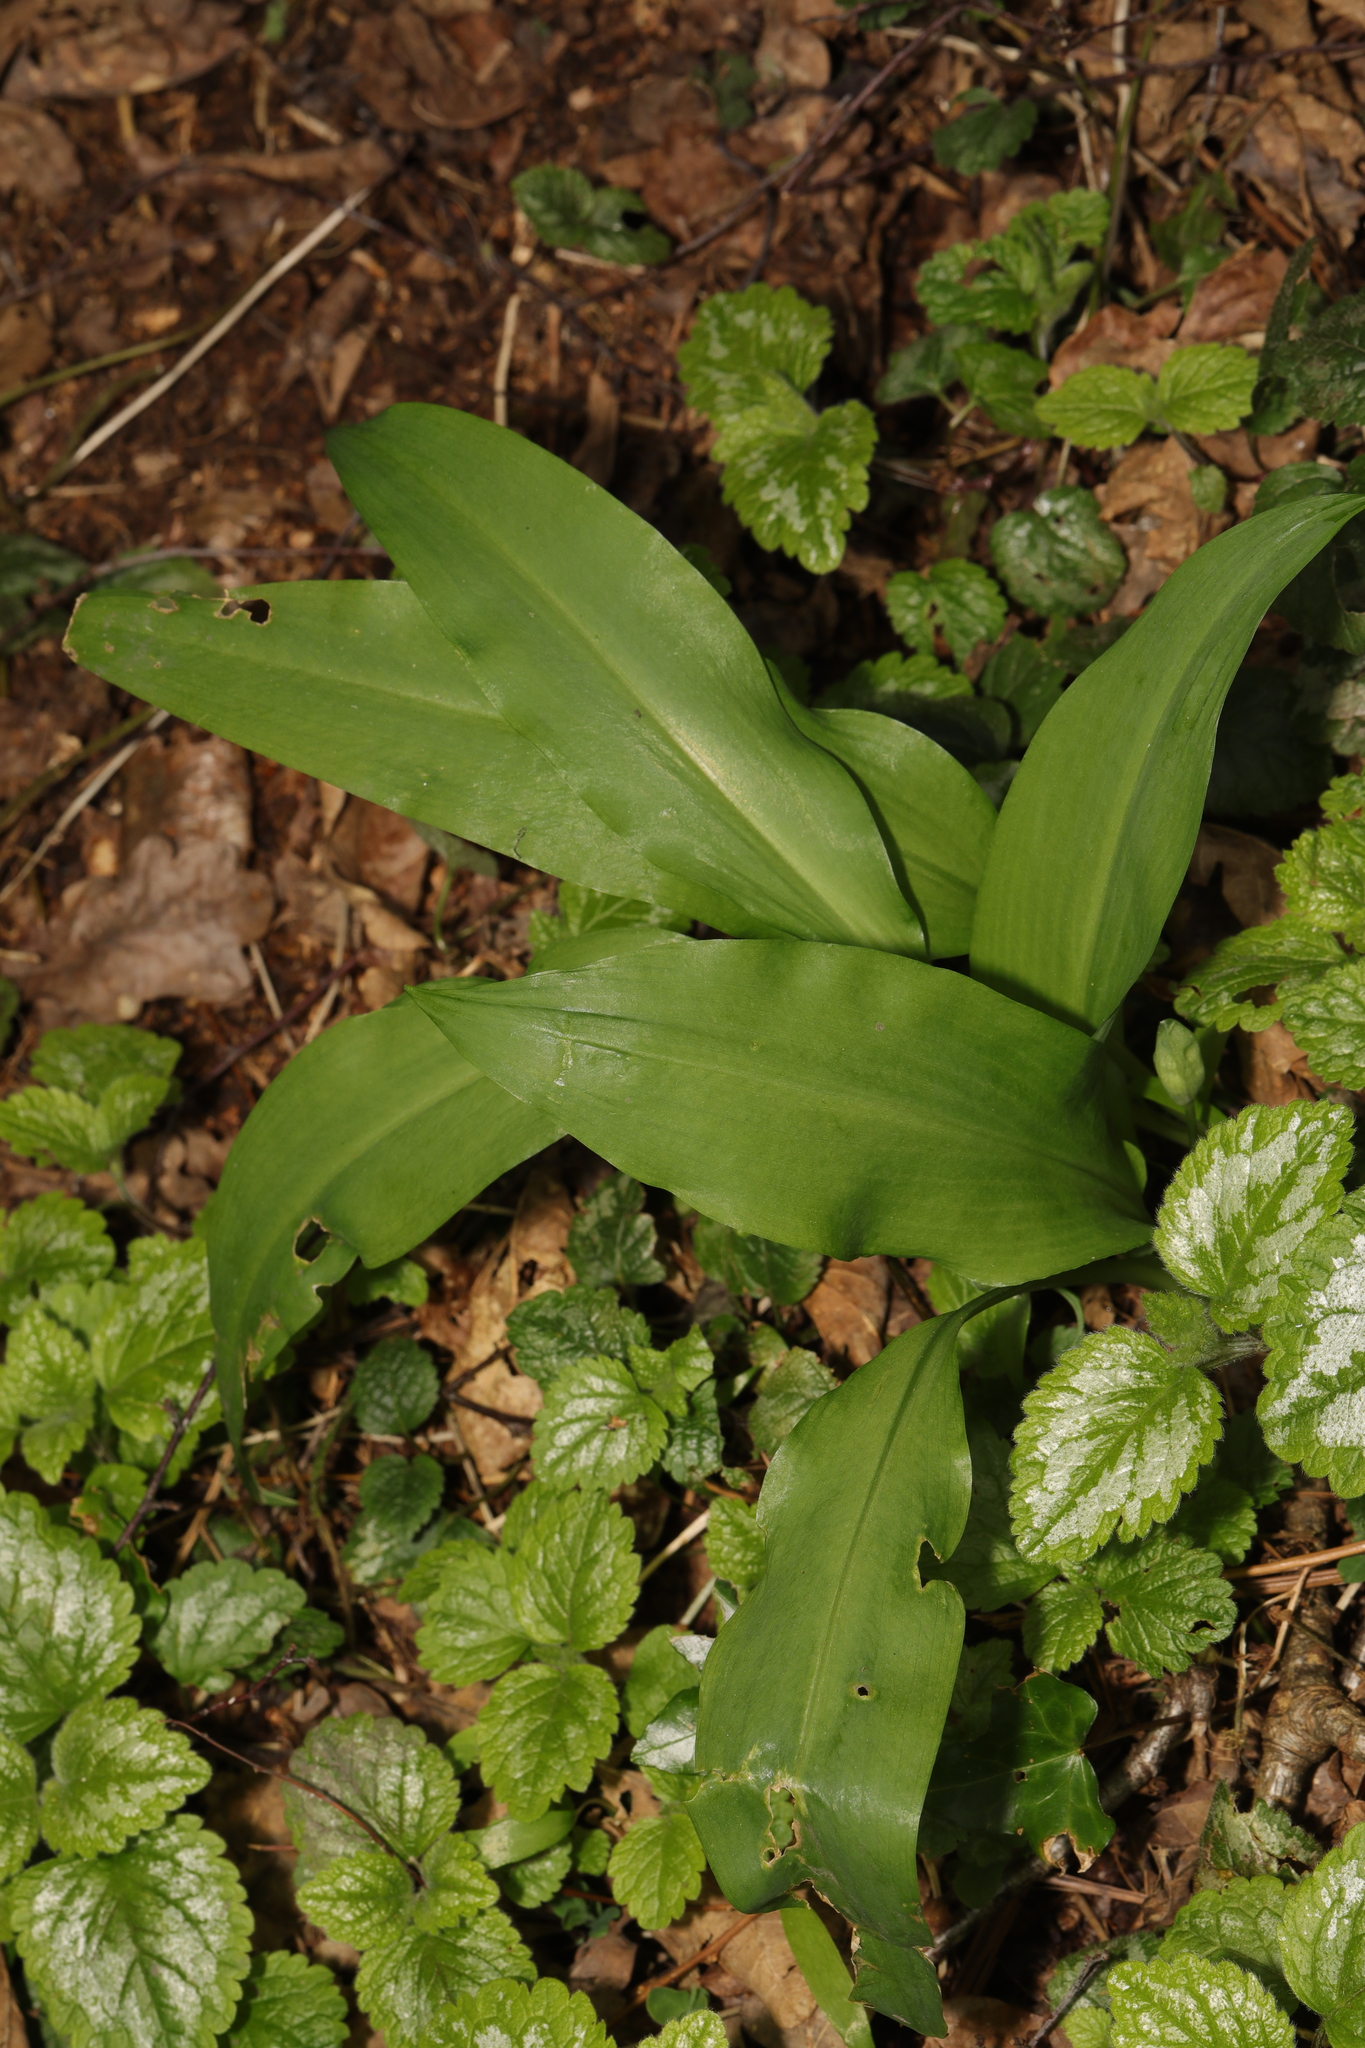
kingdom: Plantae
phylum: Tracheophyta
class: Liliopsida
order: Asparagales
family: Amaryllidaceae
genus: Allium
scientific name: Allium ursinum
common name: Ramsons
